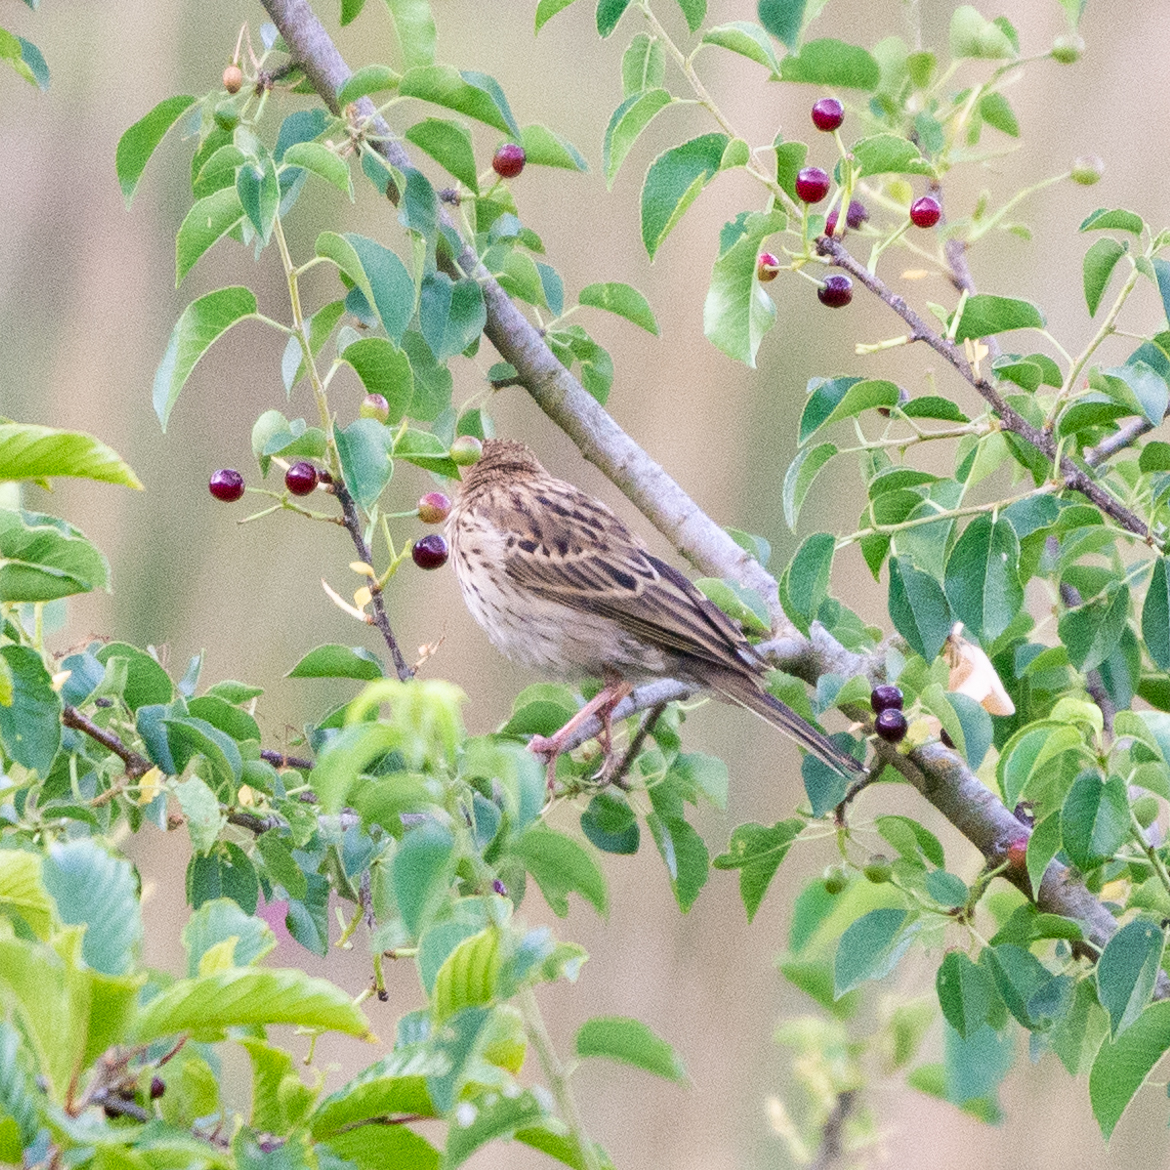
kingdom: Animalia
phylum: Chordata
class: Aves
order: Passeriformes
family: Motacillidae
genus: Anthus
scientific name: Anthus trivialis
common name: Tree pipit
